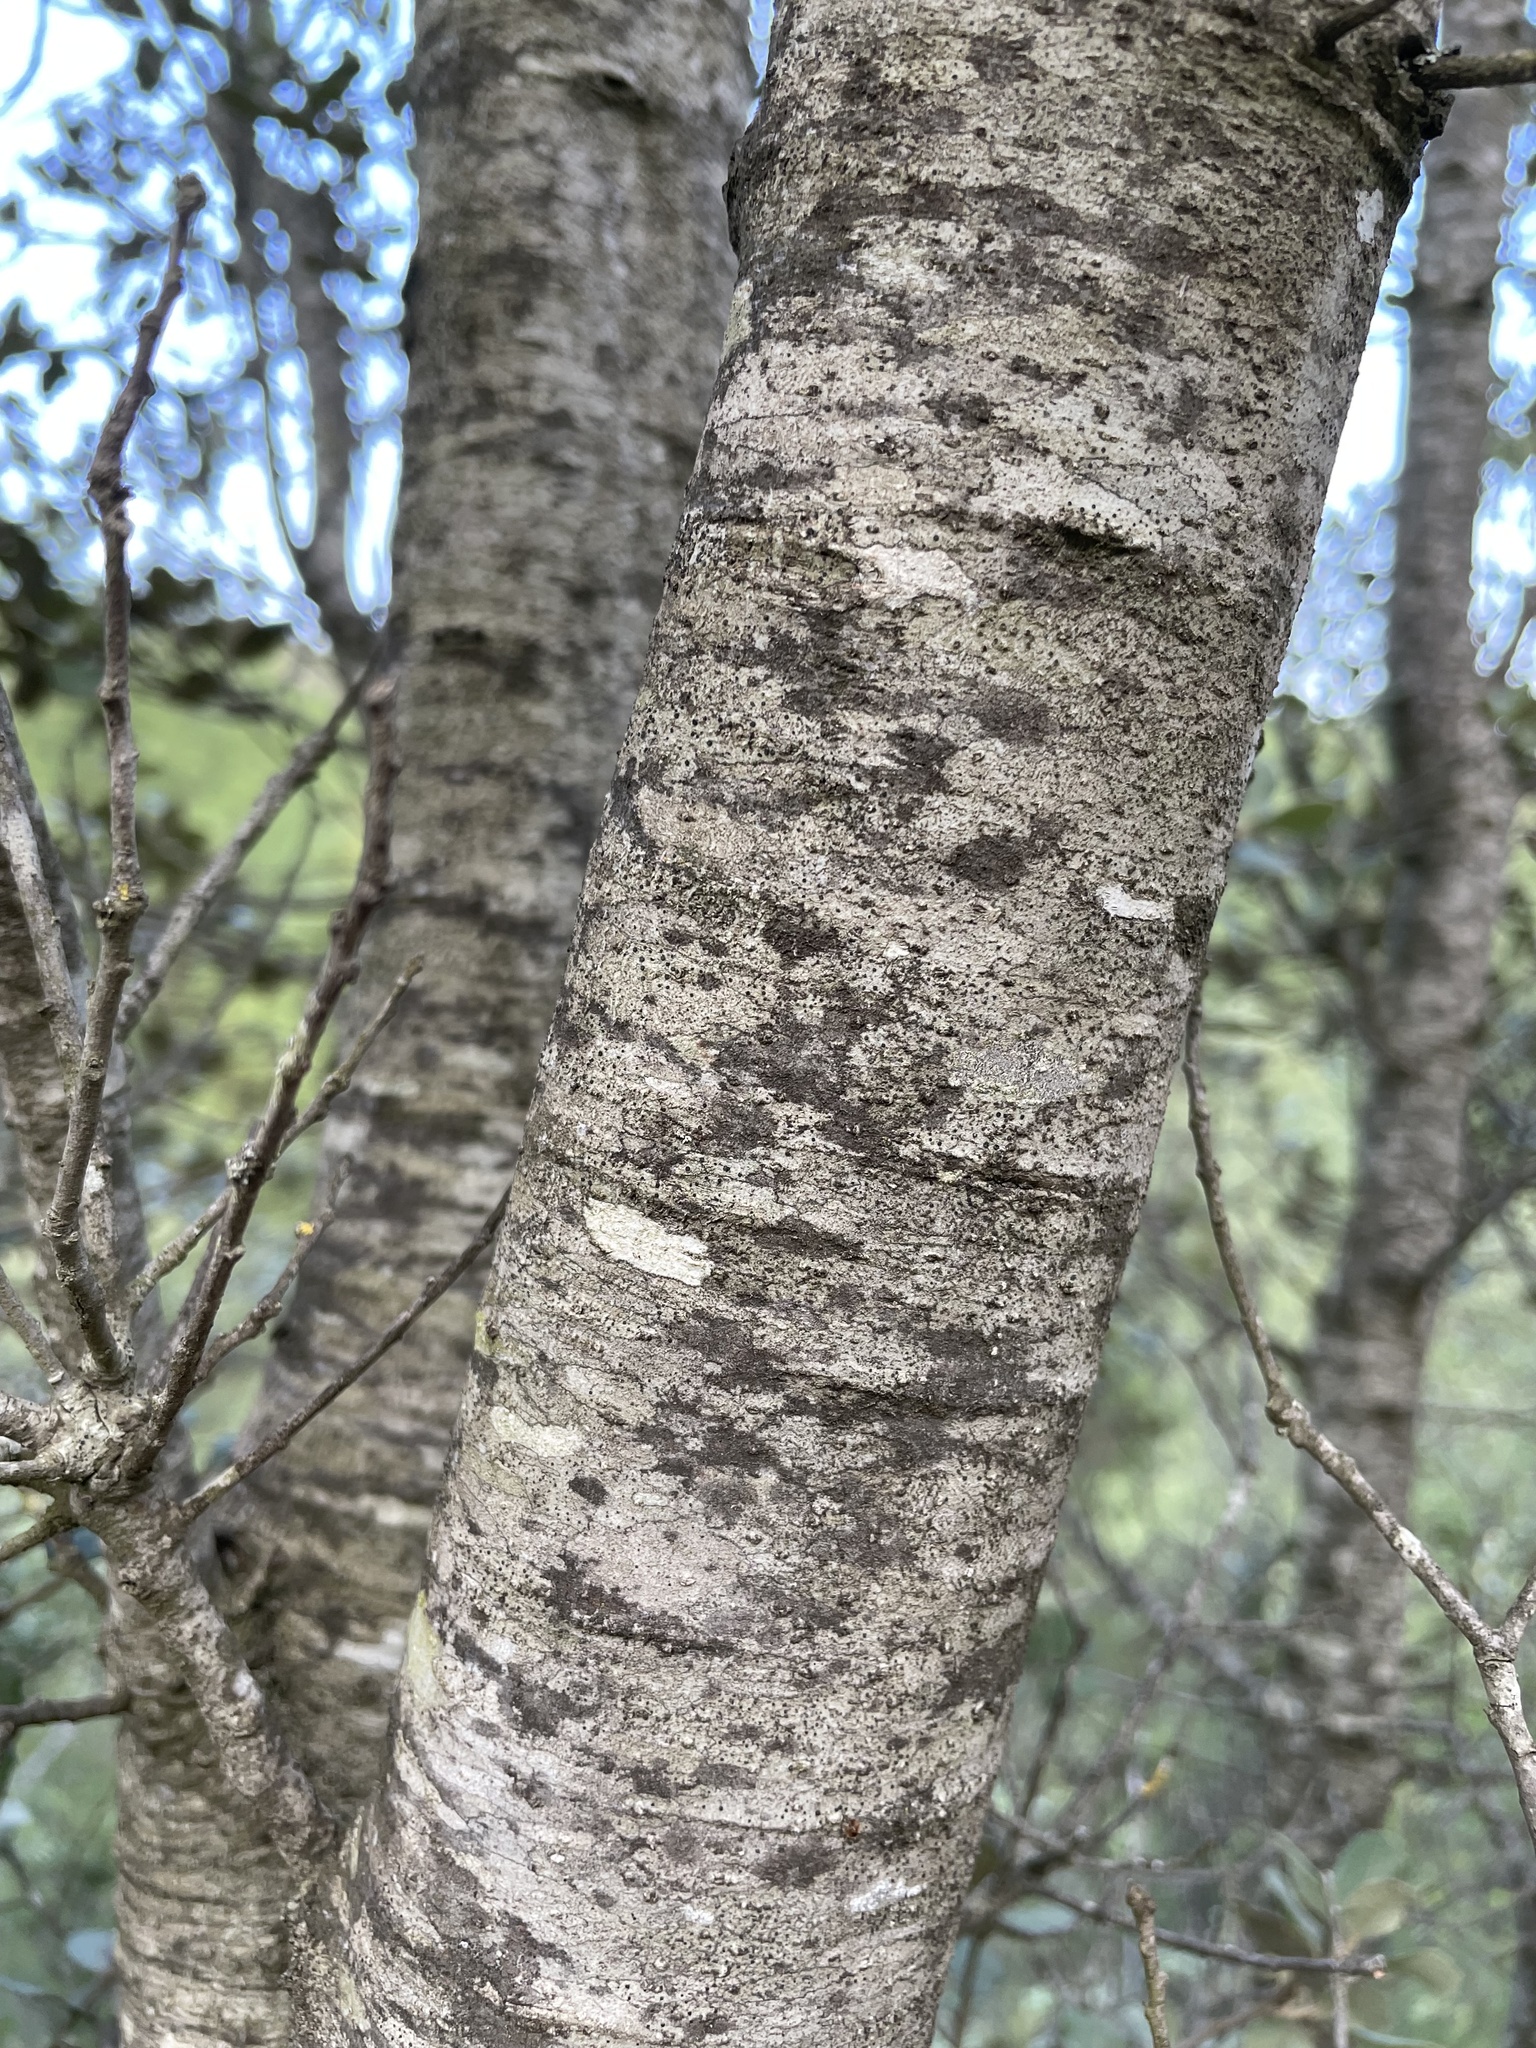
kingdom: Plantae
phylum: Tracheophyta
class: Magnoliopsida
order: Fagales
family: Fagaceae
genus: Quercus
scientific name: Quercus rotundifolia
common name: Holm oak
